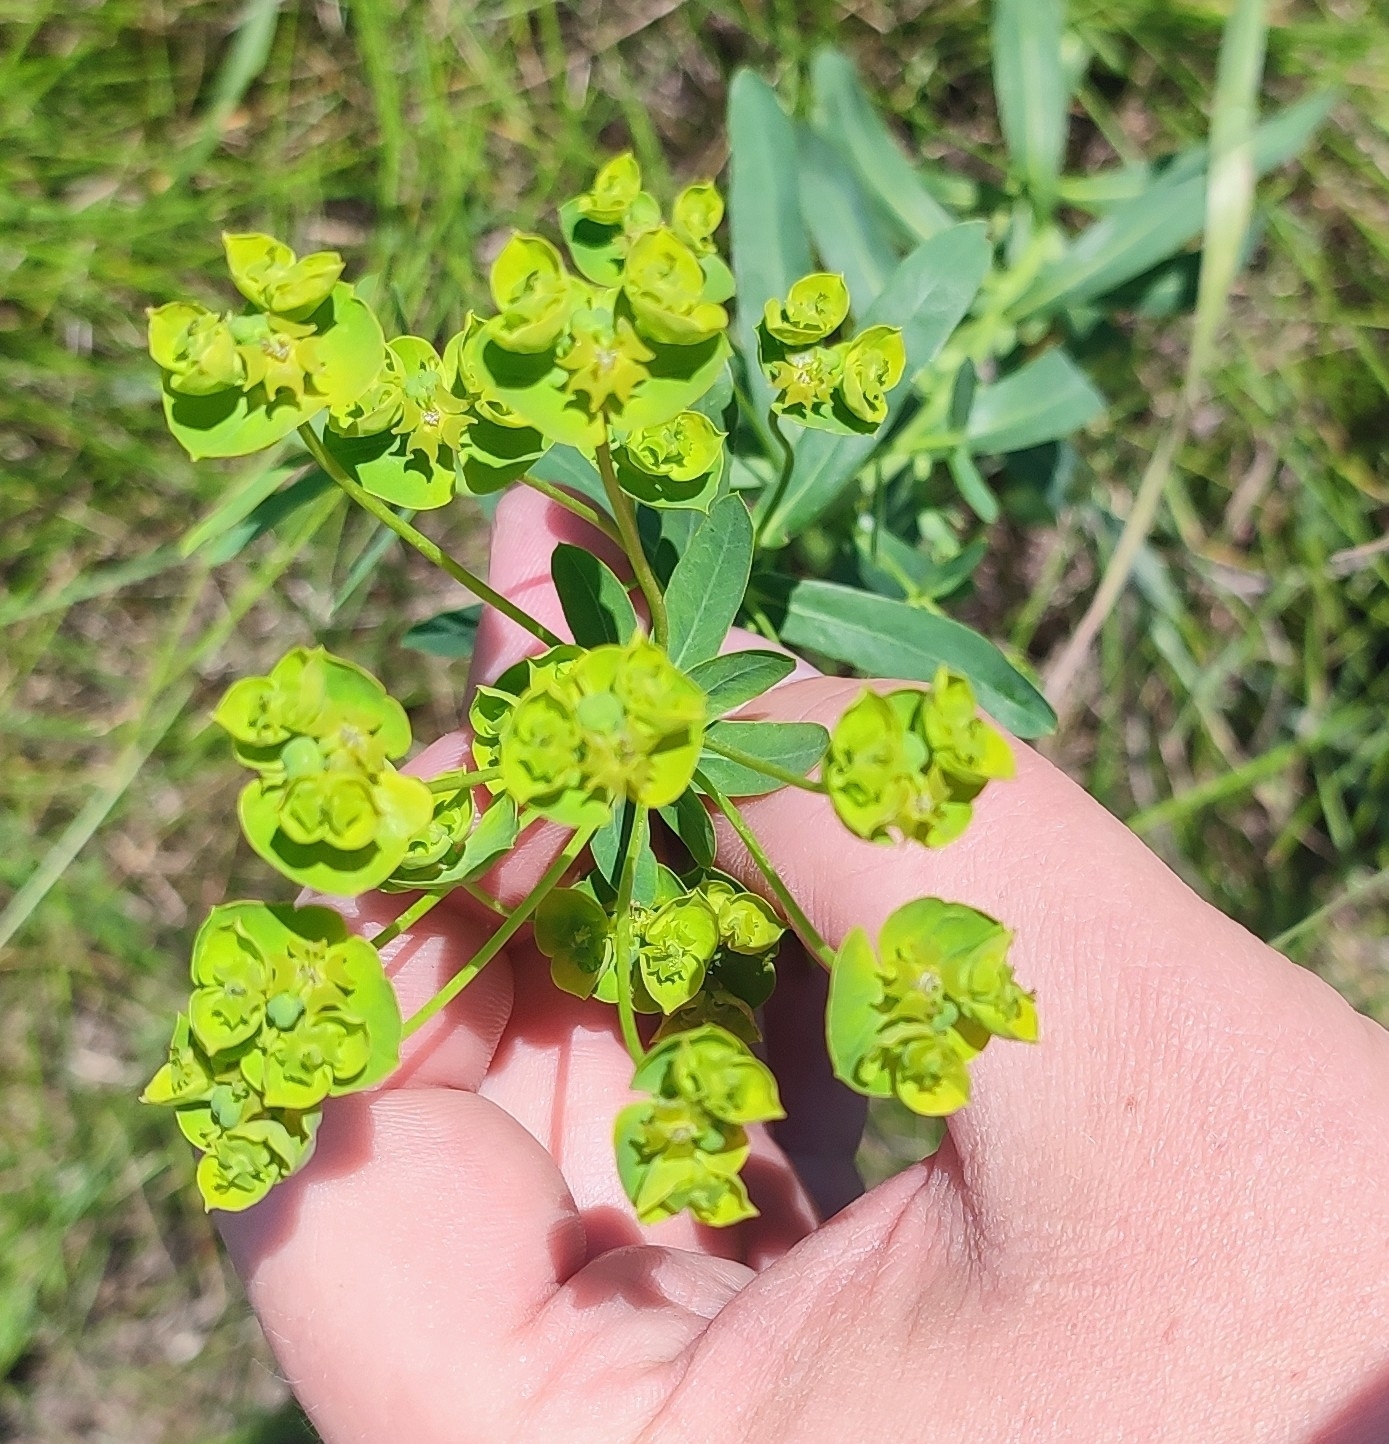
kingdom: Plantae
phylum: Tracheophyta
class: Magnoliopsida
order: Malpighiales
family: Euphorbiaceae
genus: Euphorbia
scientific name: Euphorbia virgata
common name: Leafy spurge
